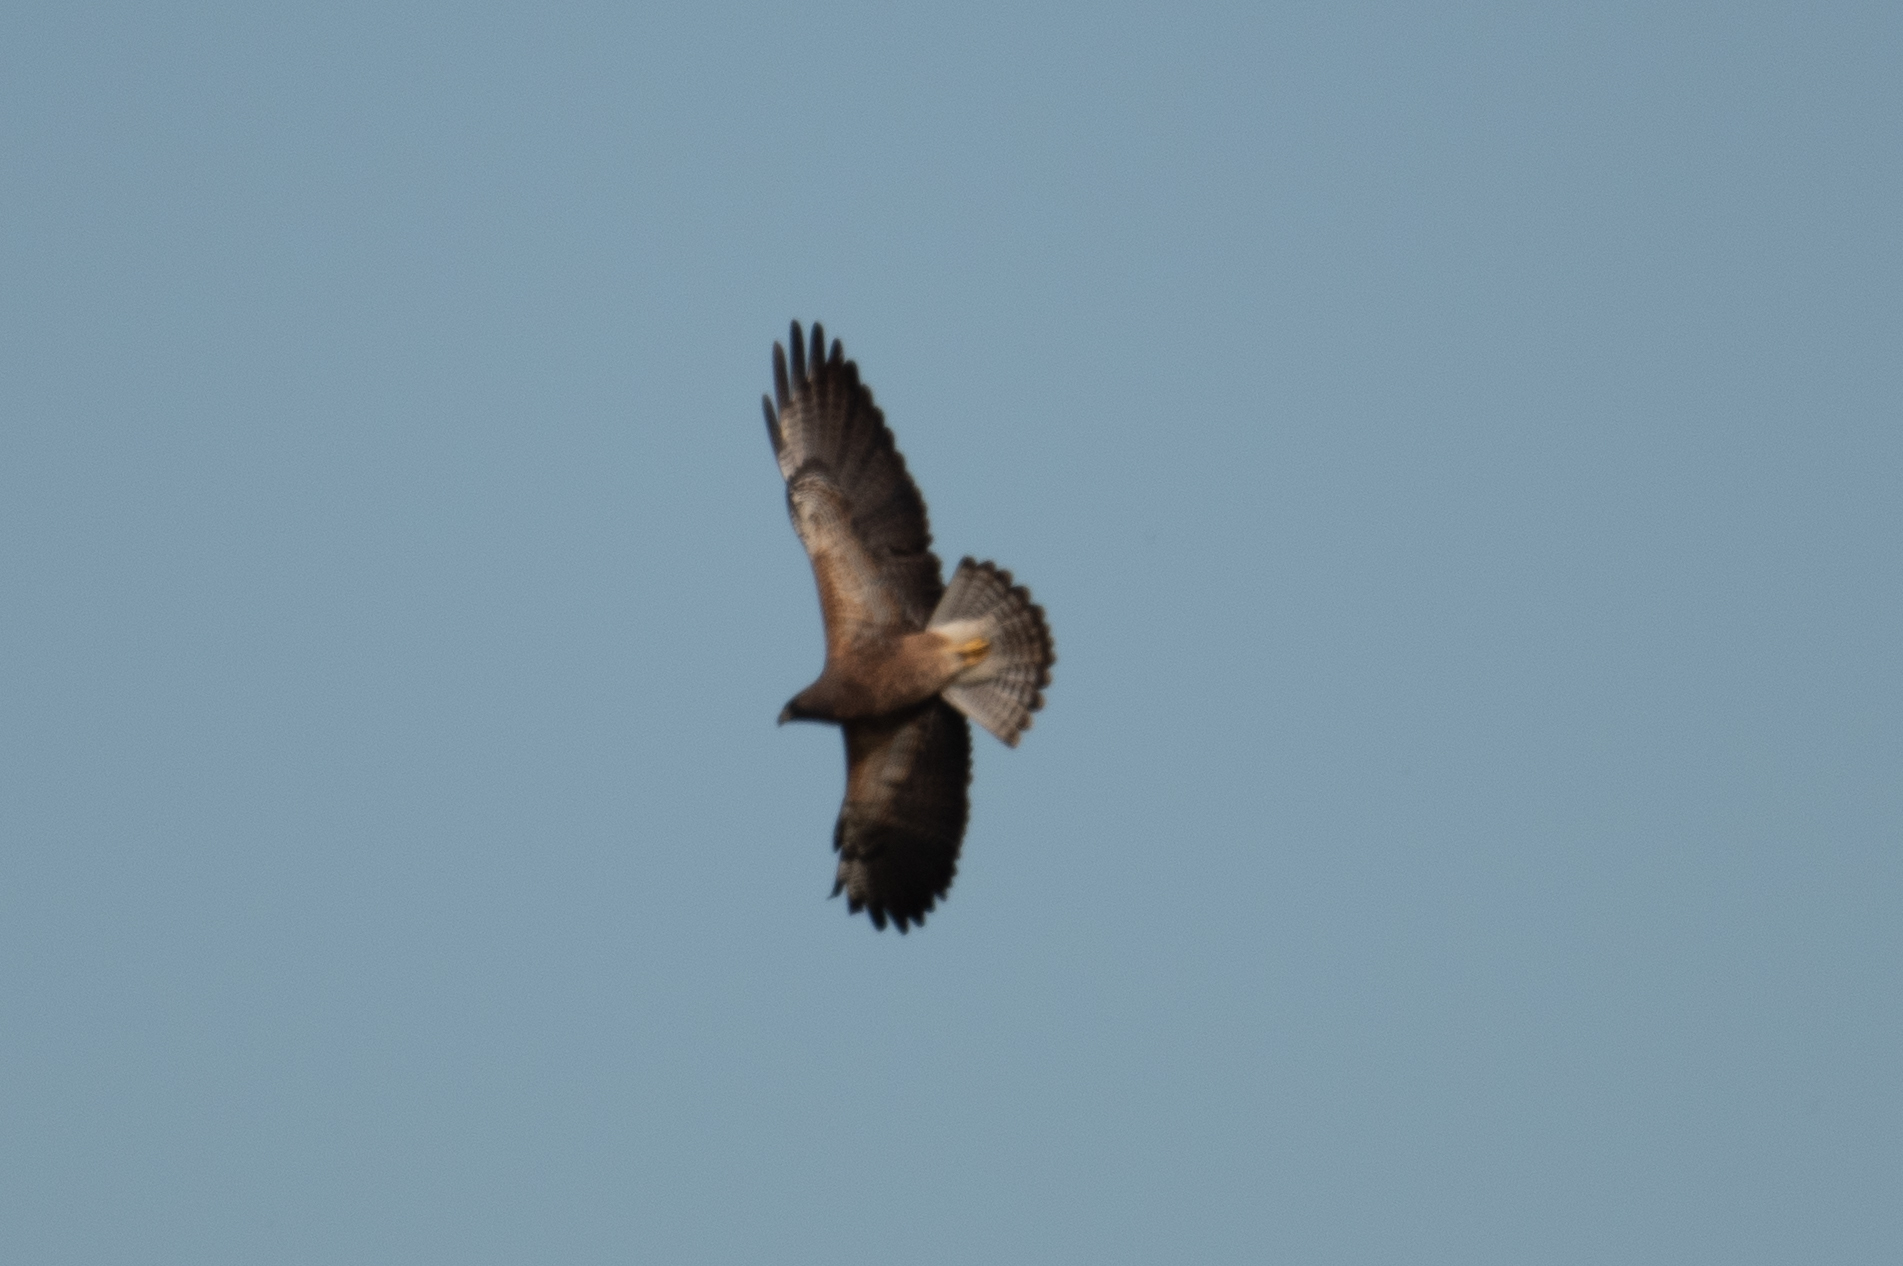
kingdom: Animalia
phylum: Chordata
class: Aves
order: Accipitriformes
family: Accipitridae
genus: Buteo
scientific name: Buteo swainsoni
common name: Swainson's hawk
